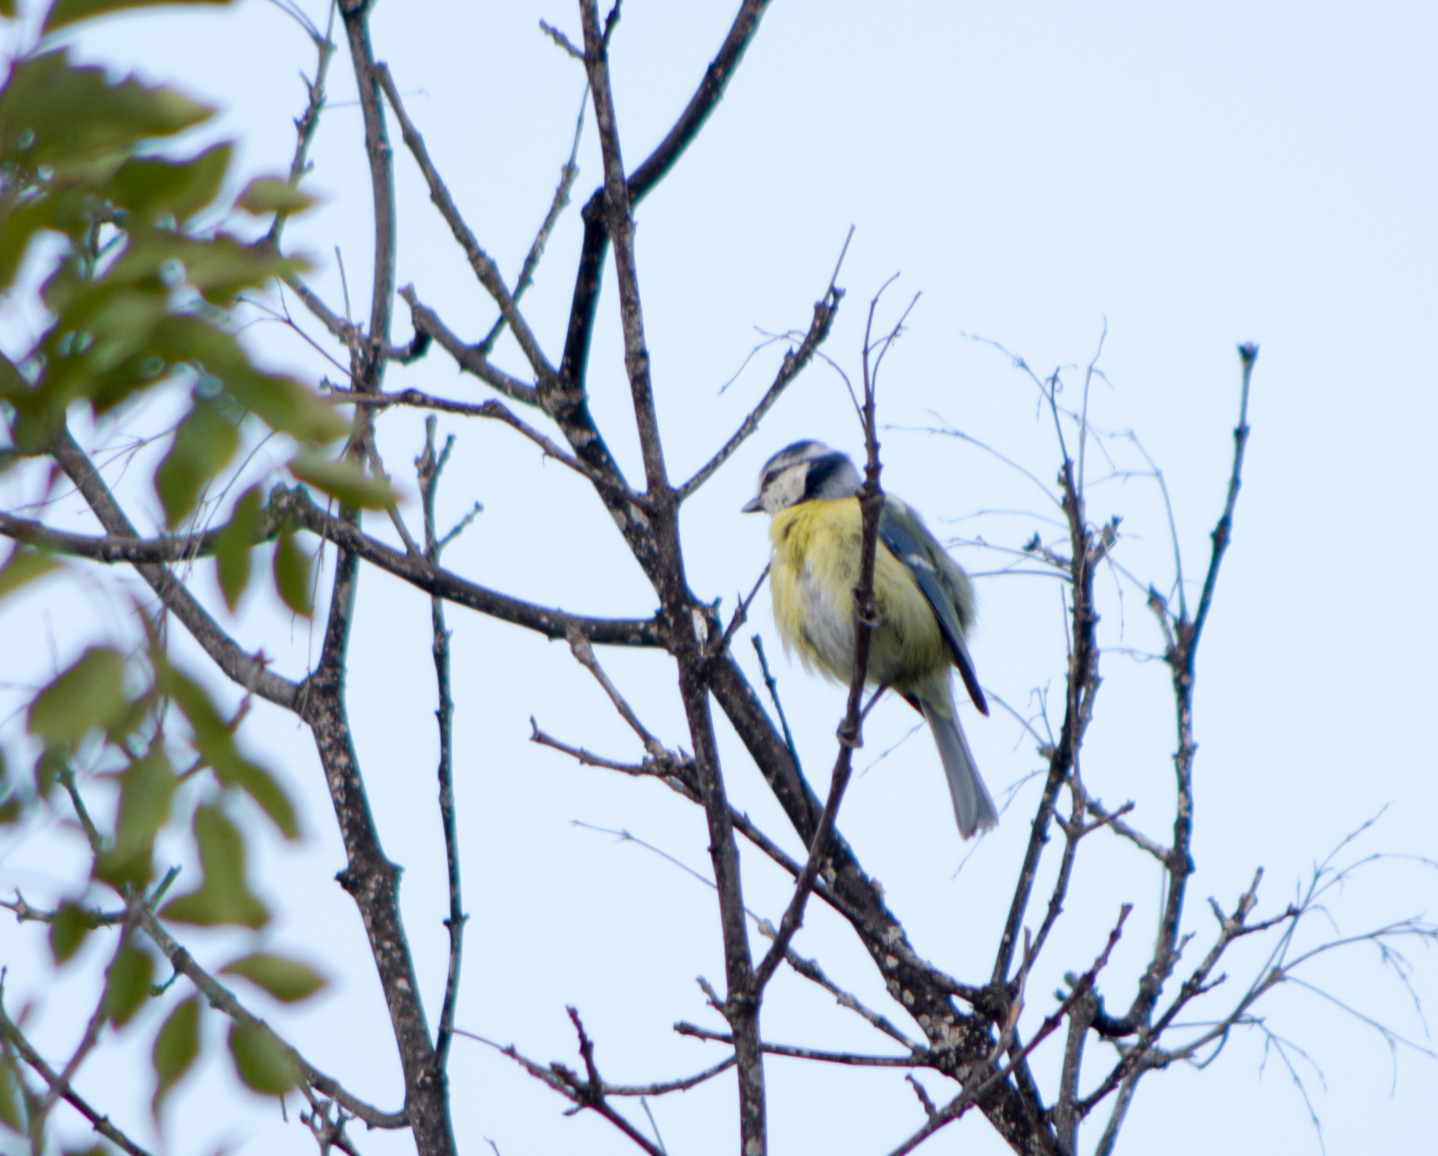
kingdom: Animalia
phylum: Chordata
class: Aves
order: Passeriformes
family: Paridae
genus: Cyanistes
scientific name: Cyanistes caeruleus
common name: Eurasian blue tit
